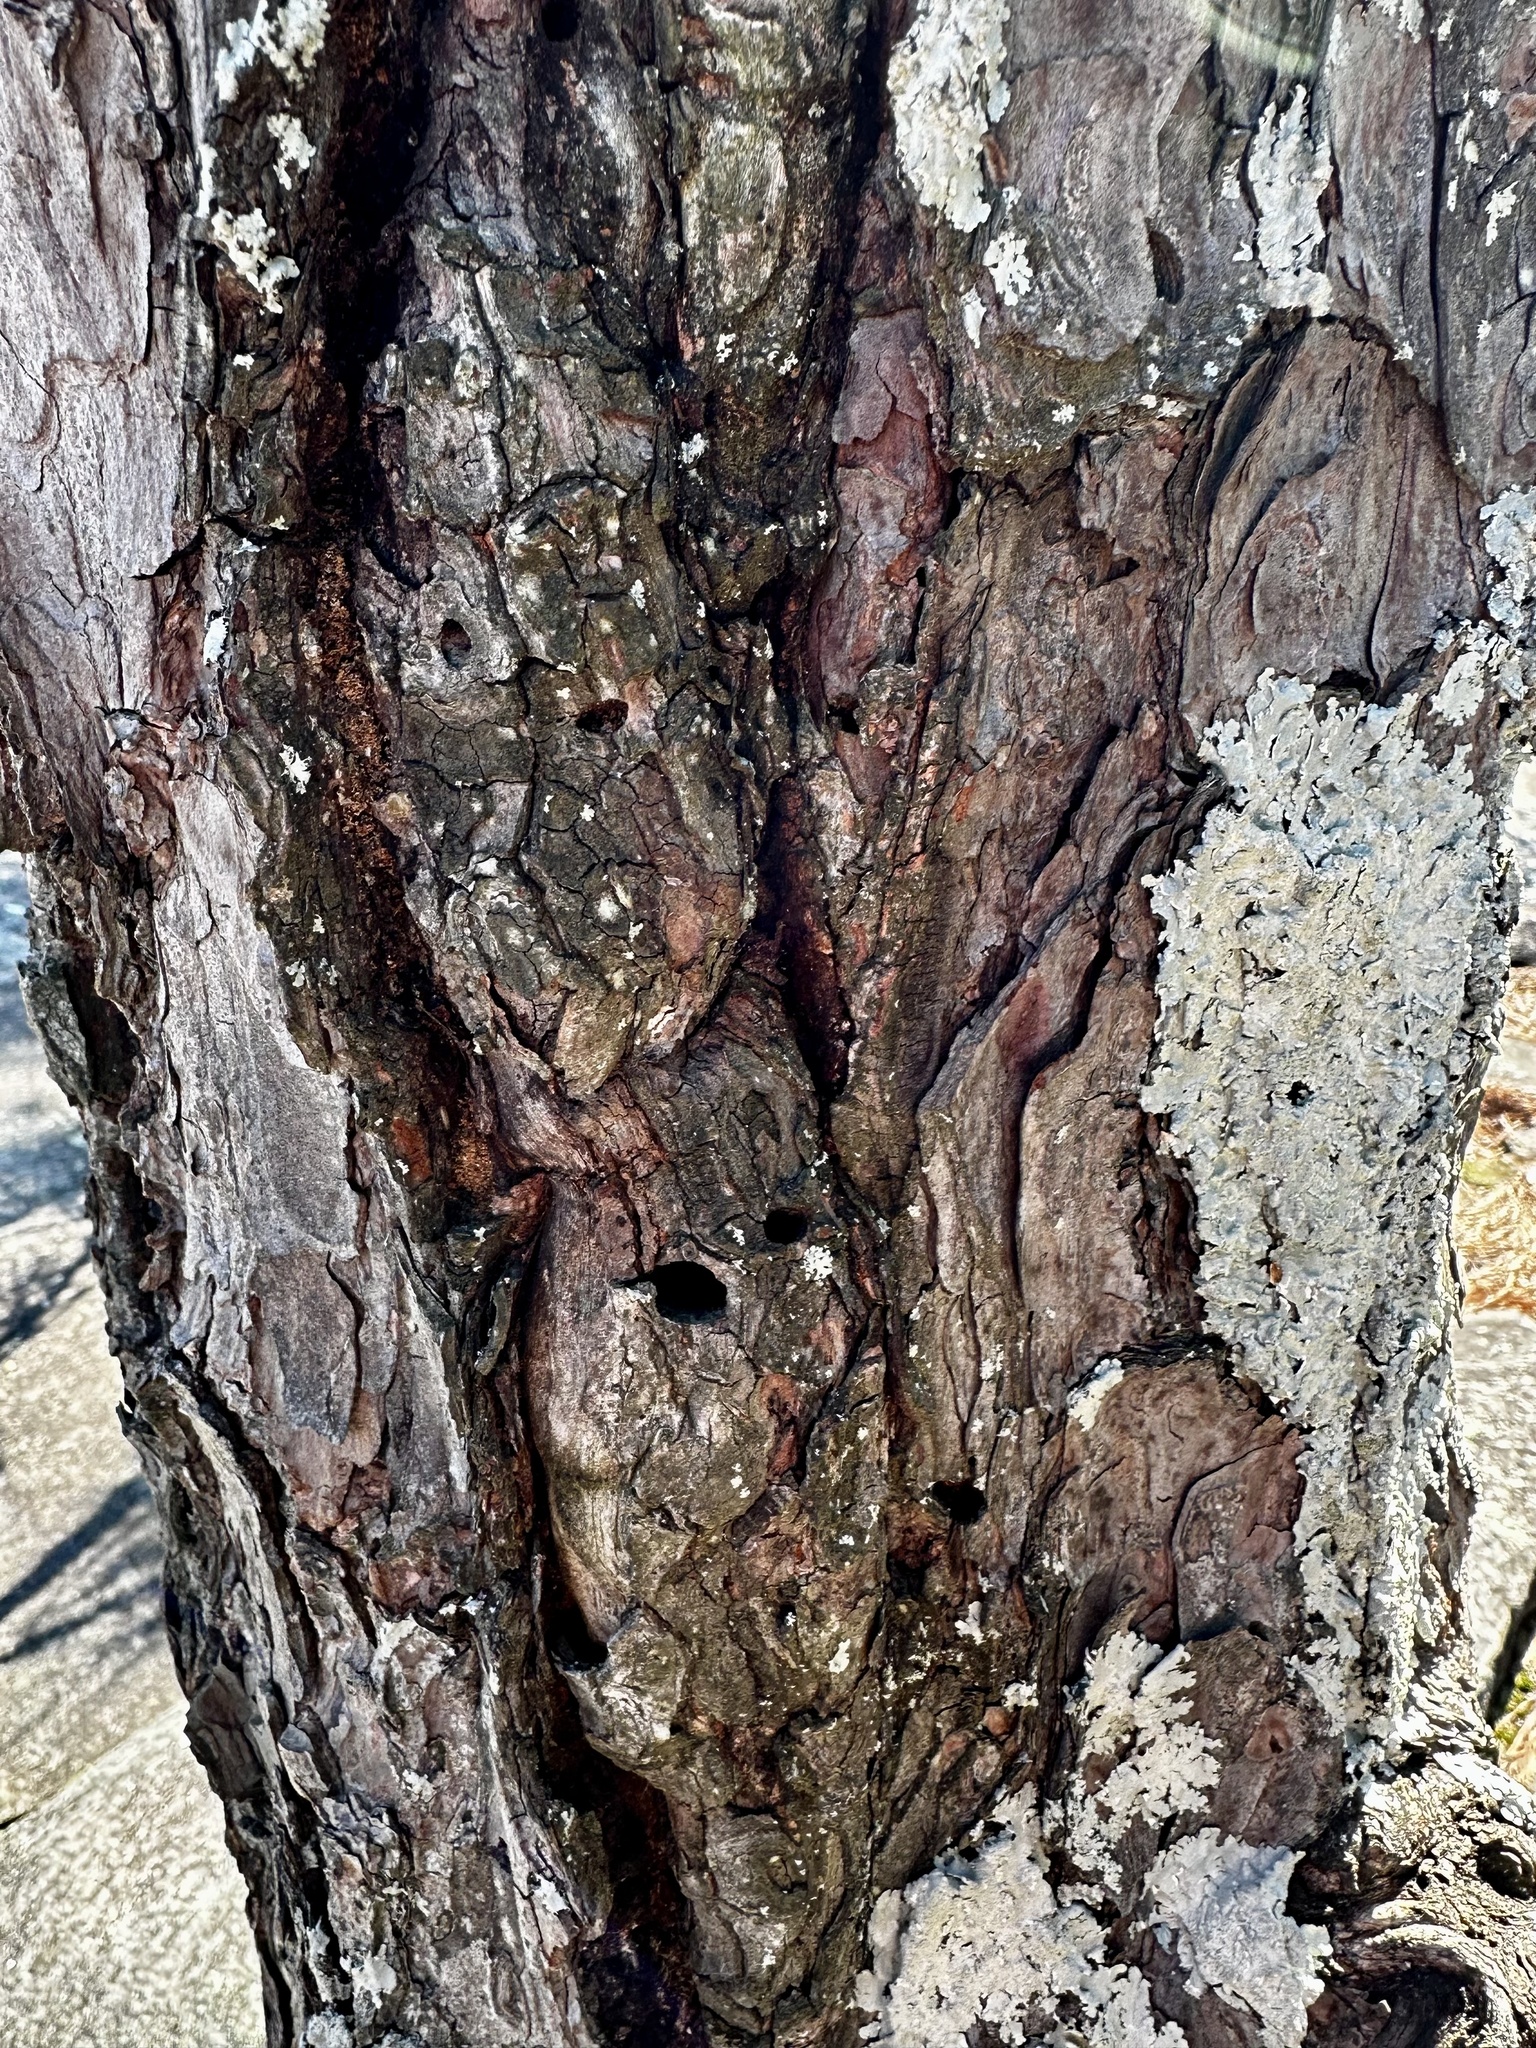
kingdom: Plantae
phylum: Tracheophyta
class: Pinopsida
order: Pinales
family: Pinaceae
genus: Pinus
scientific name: Pinus taeda
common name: Loblolly pine
